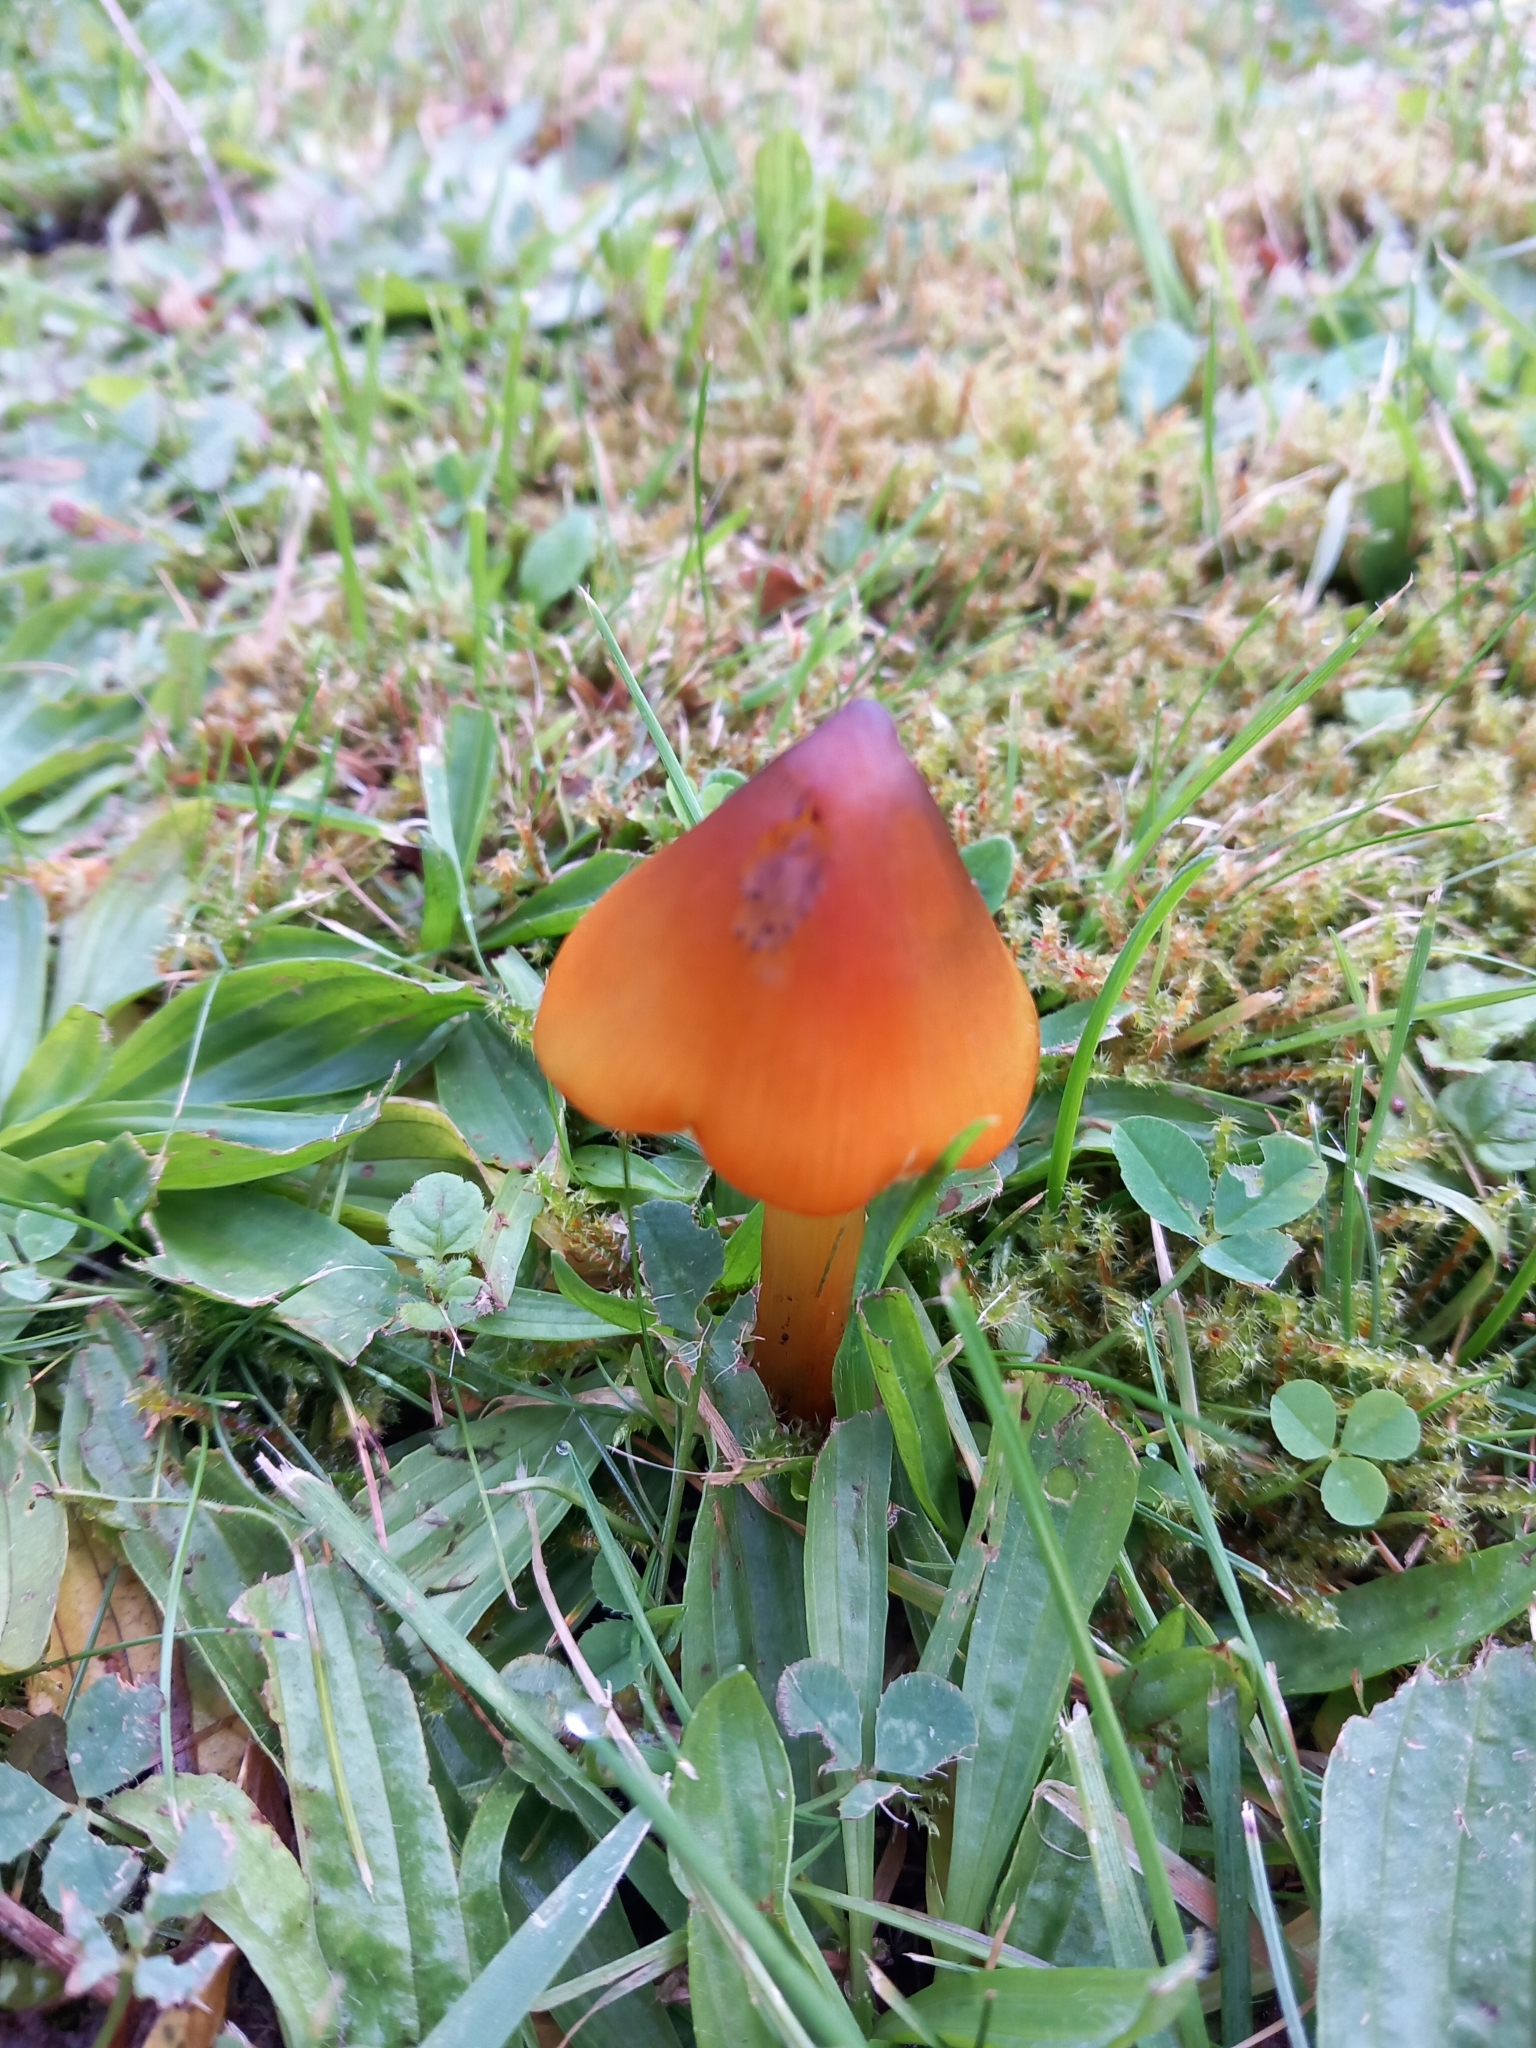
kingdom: Fungi
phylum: Basidiomycota
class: Agaricomycetes
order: Agaricales
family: Hygrophoraceae
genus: Hygrocybe
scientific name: Hygrocybe conica
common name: Blackening wax-cap
